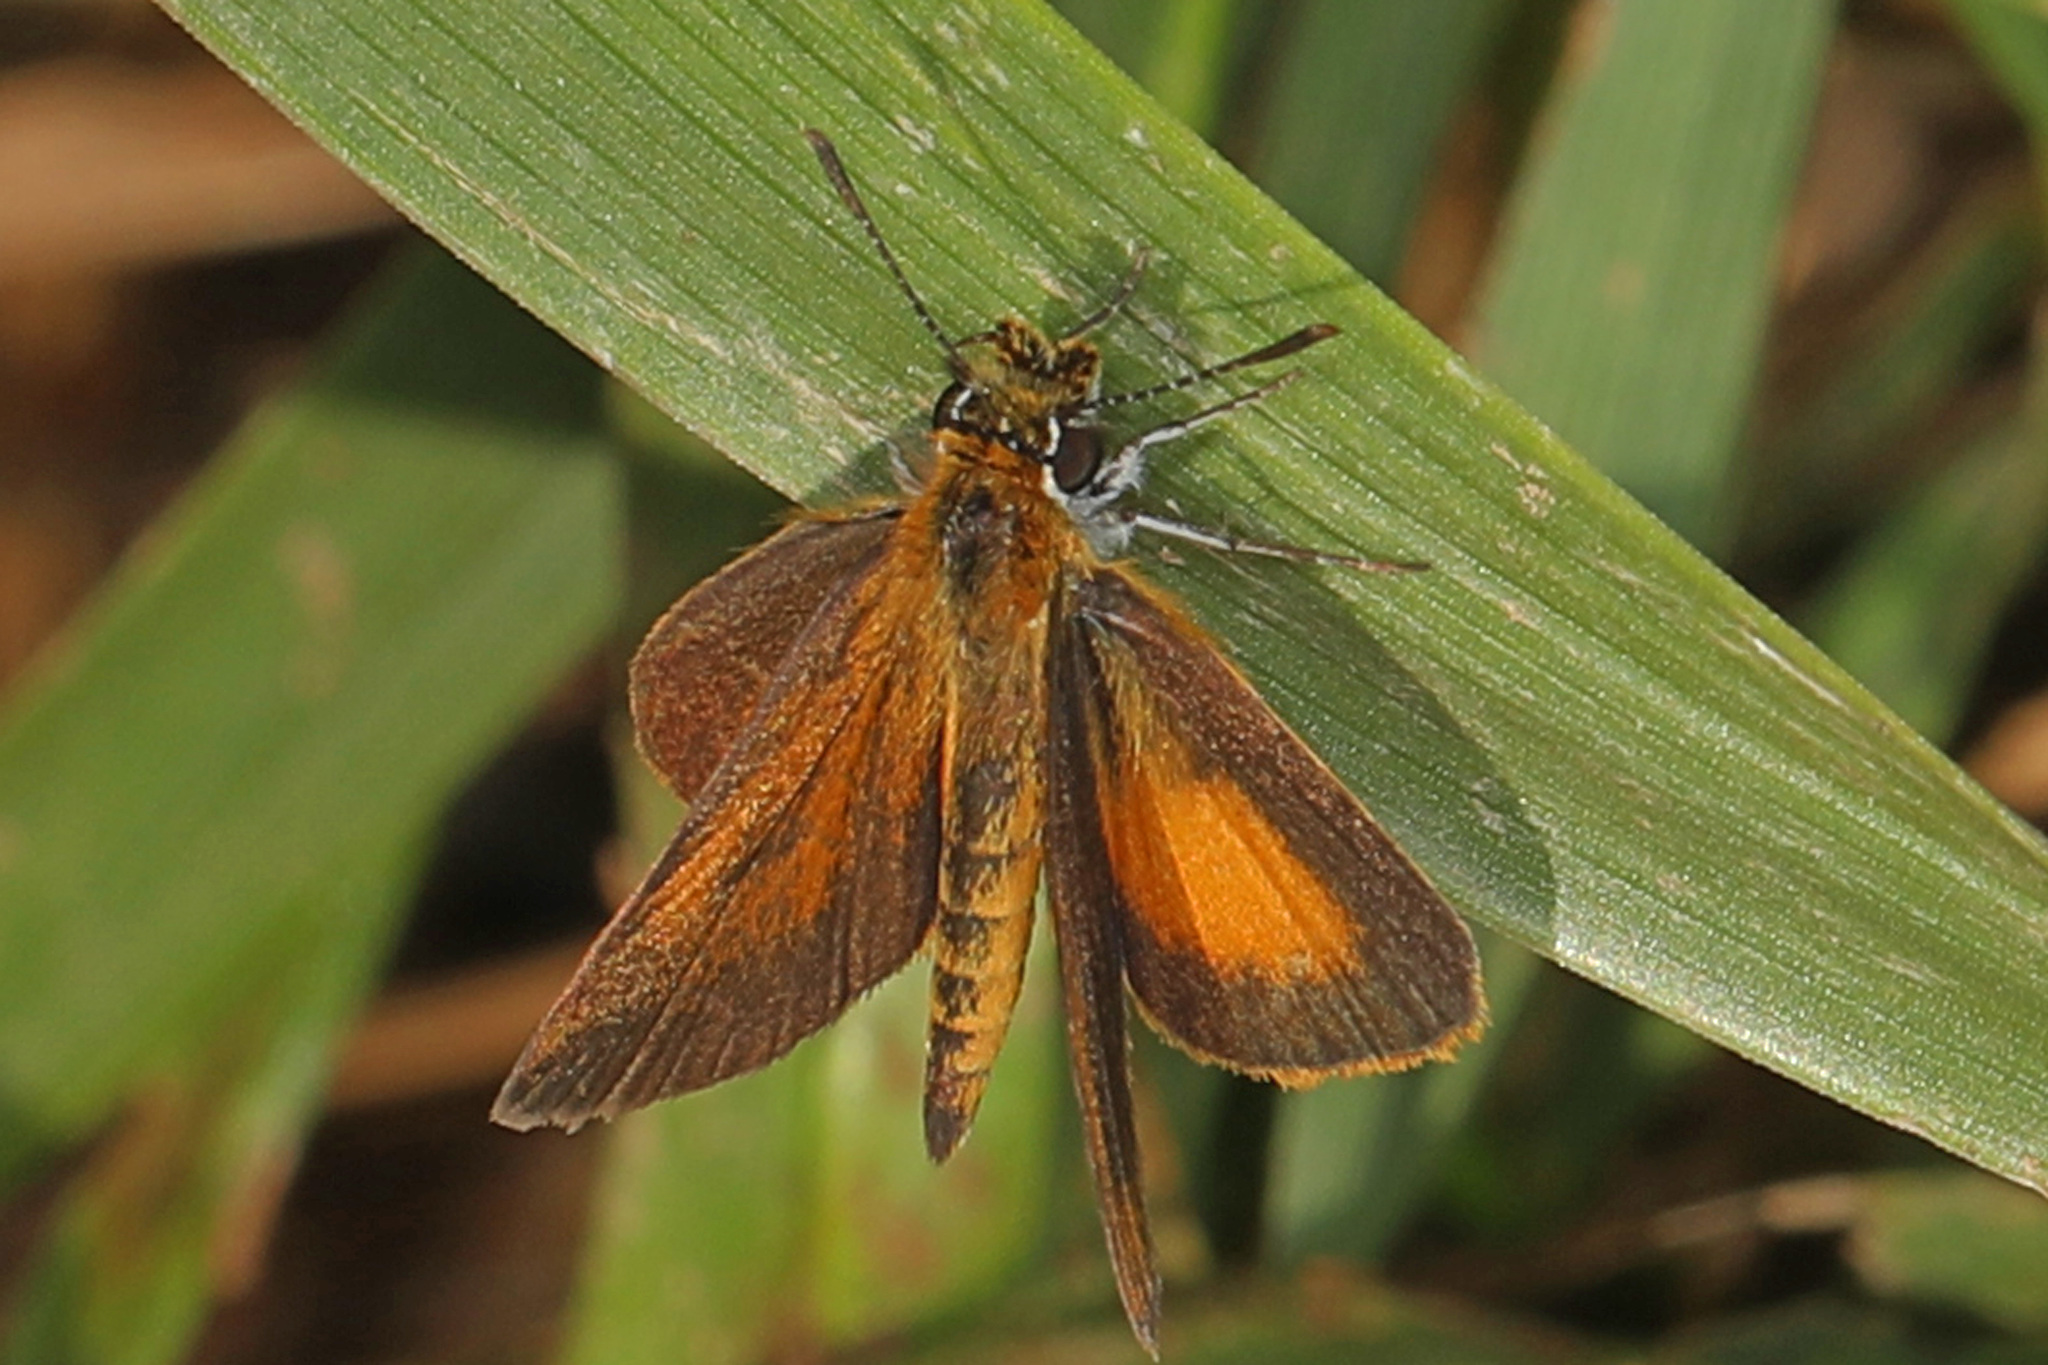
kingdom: Animalia
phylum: Arthropoda
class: Insecta
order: Lepidoptera
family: Hesperiidae
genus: Ancyloxypha
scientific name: Ancyloxypha numitor
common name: Least skipper
